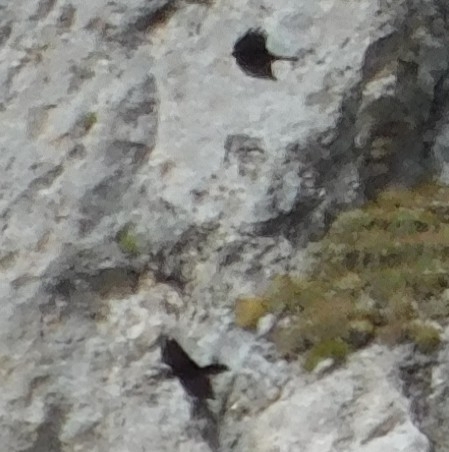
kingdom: Animalia
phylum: Chordata
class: Aves
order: Passeriformes
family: Corvidae
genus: Pyrrhocorax
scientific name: Pyrrhocorax graculus
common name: Alpine chough
